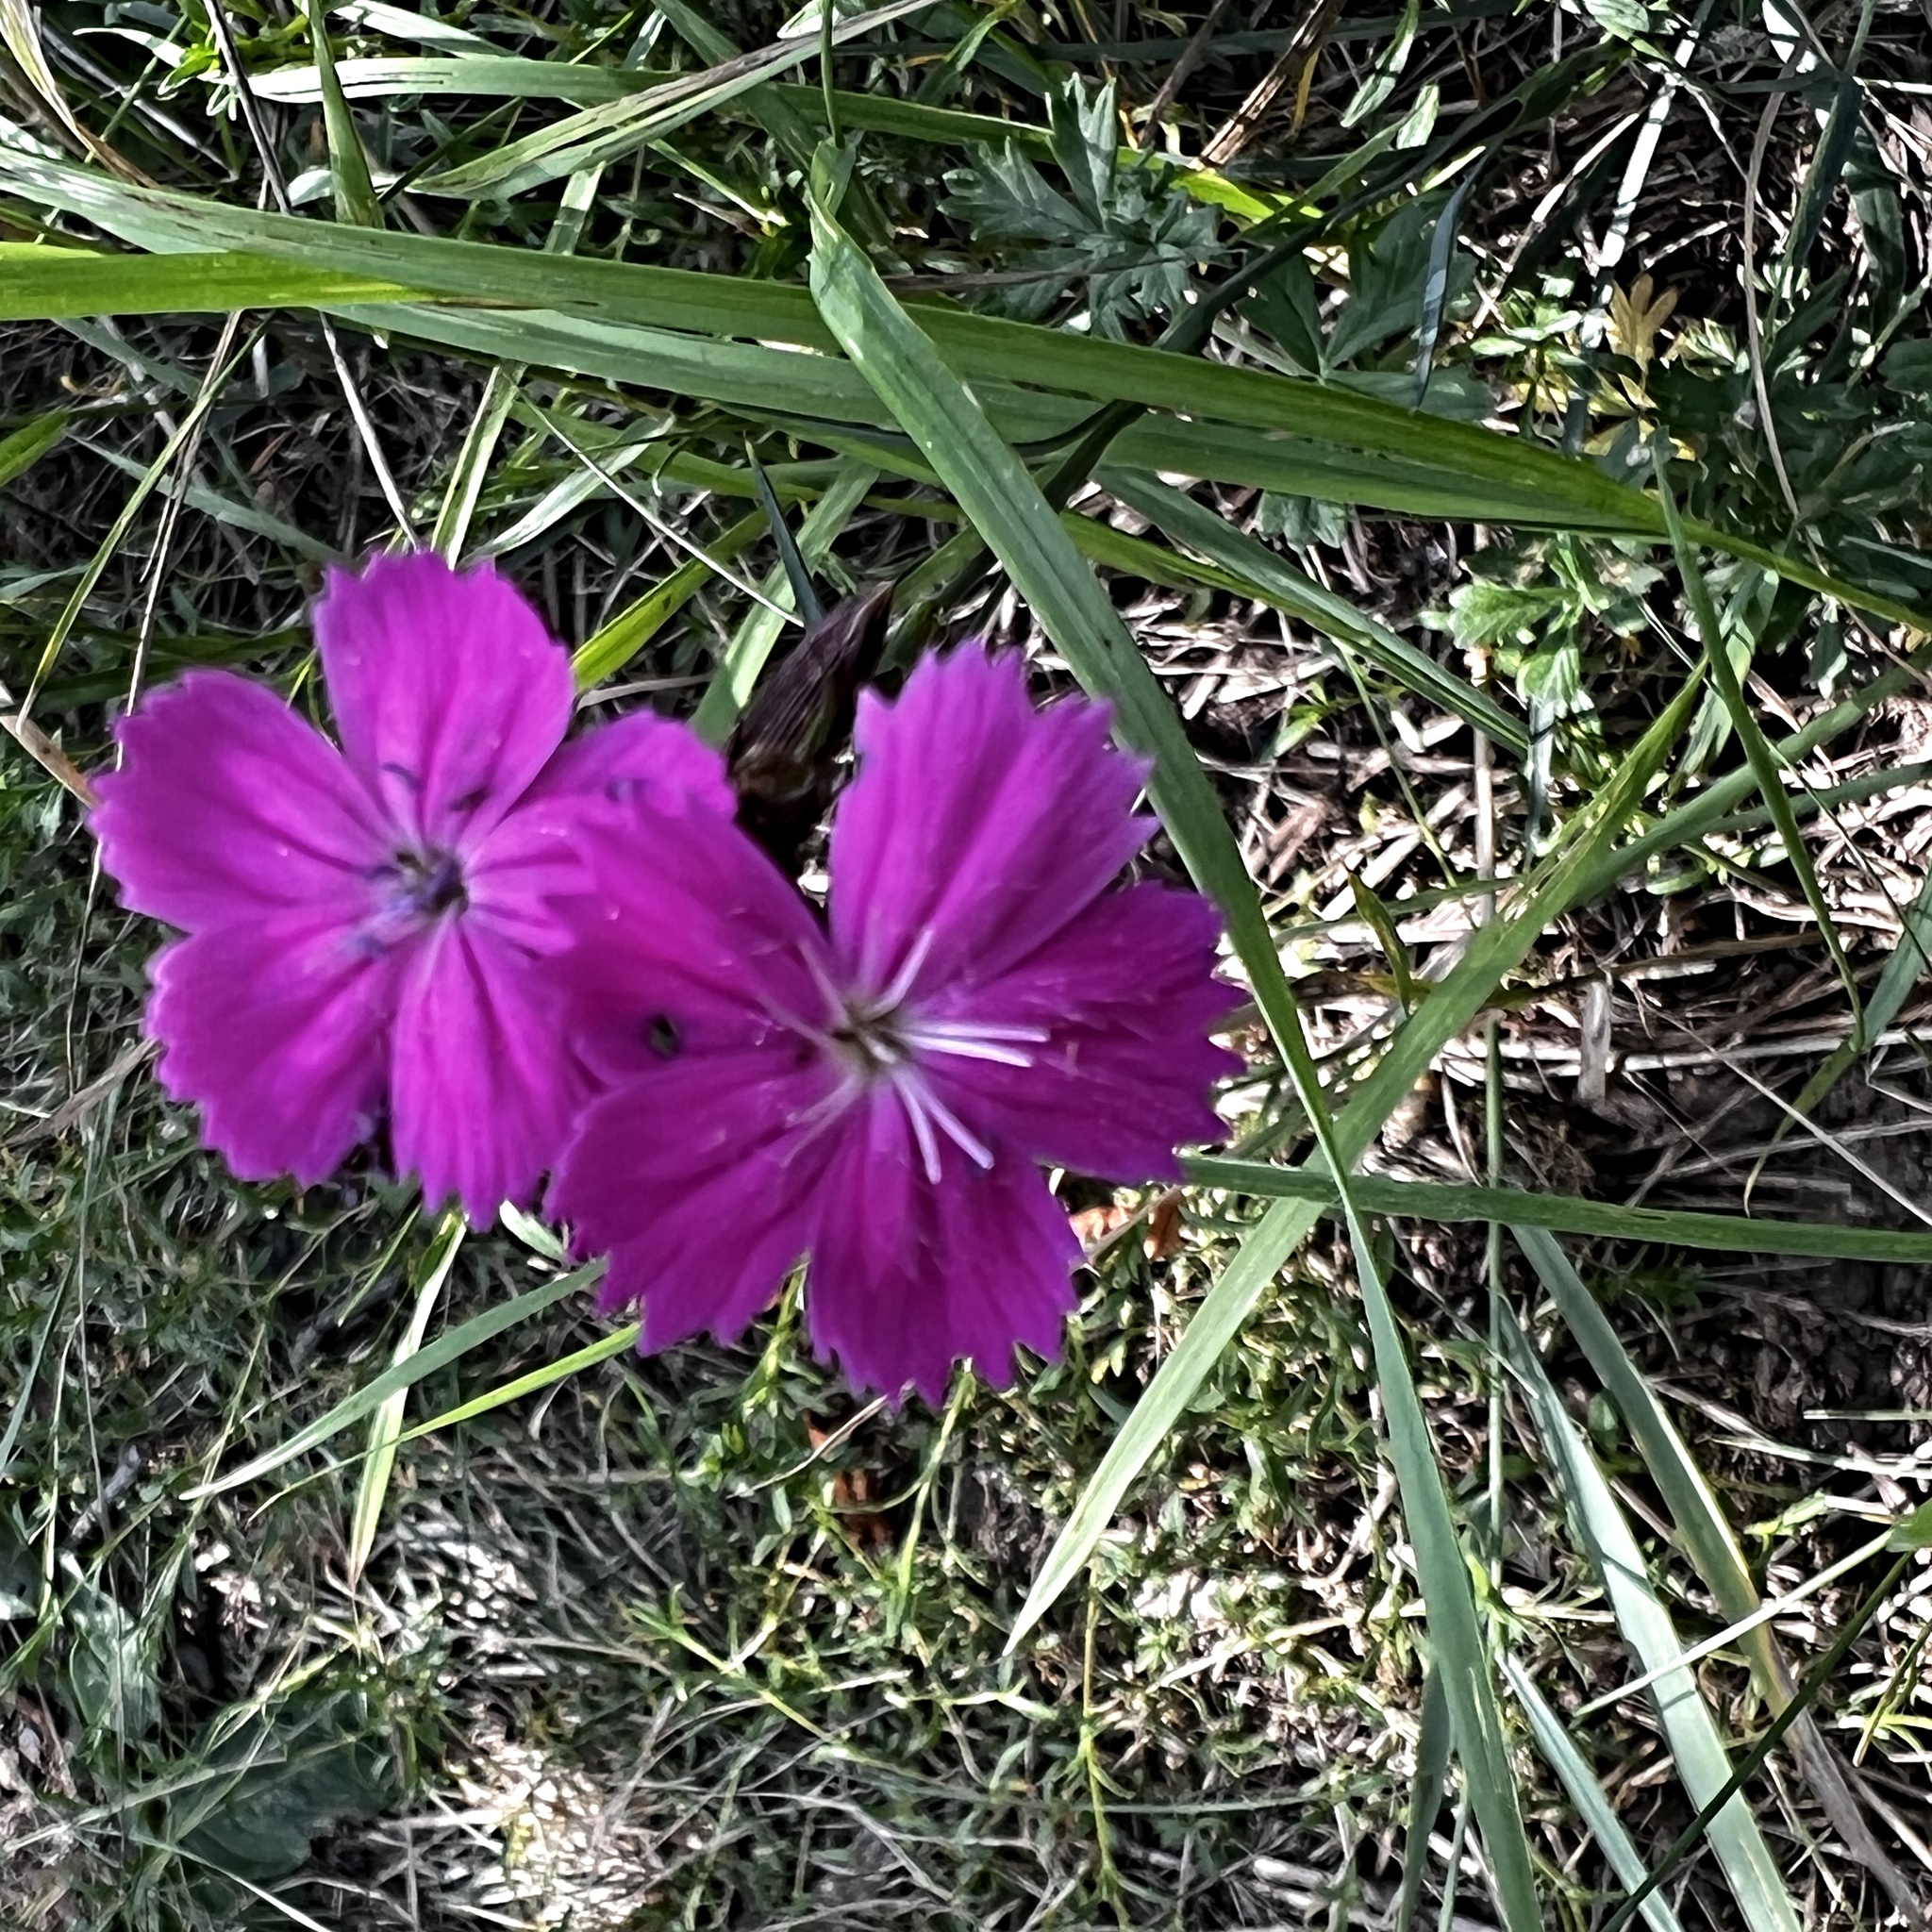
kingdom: Plantae
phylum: Tracheophyta
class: Magnoliopsida
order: Caryophyllales
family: Caryophyllaceae
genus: Dianthus
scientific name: Dianthus carthusianorum
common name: Carthusian pink
